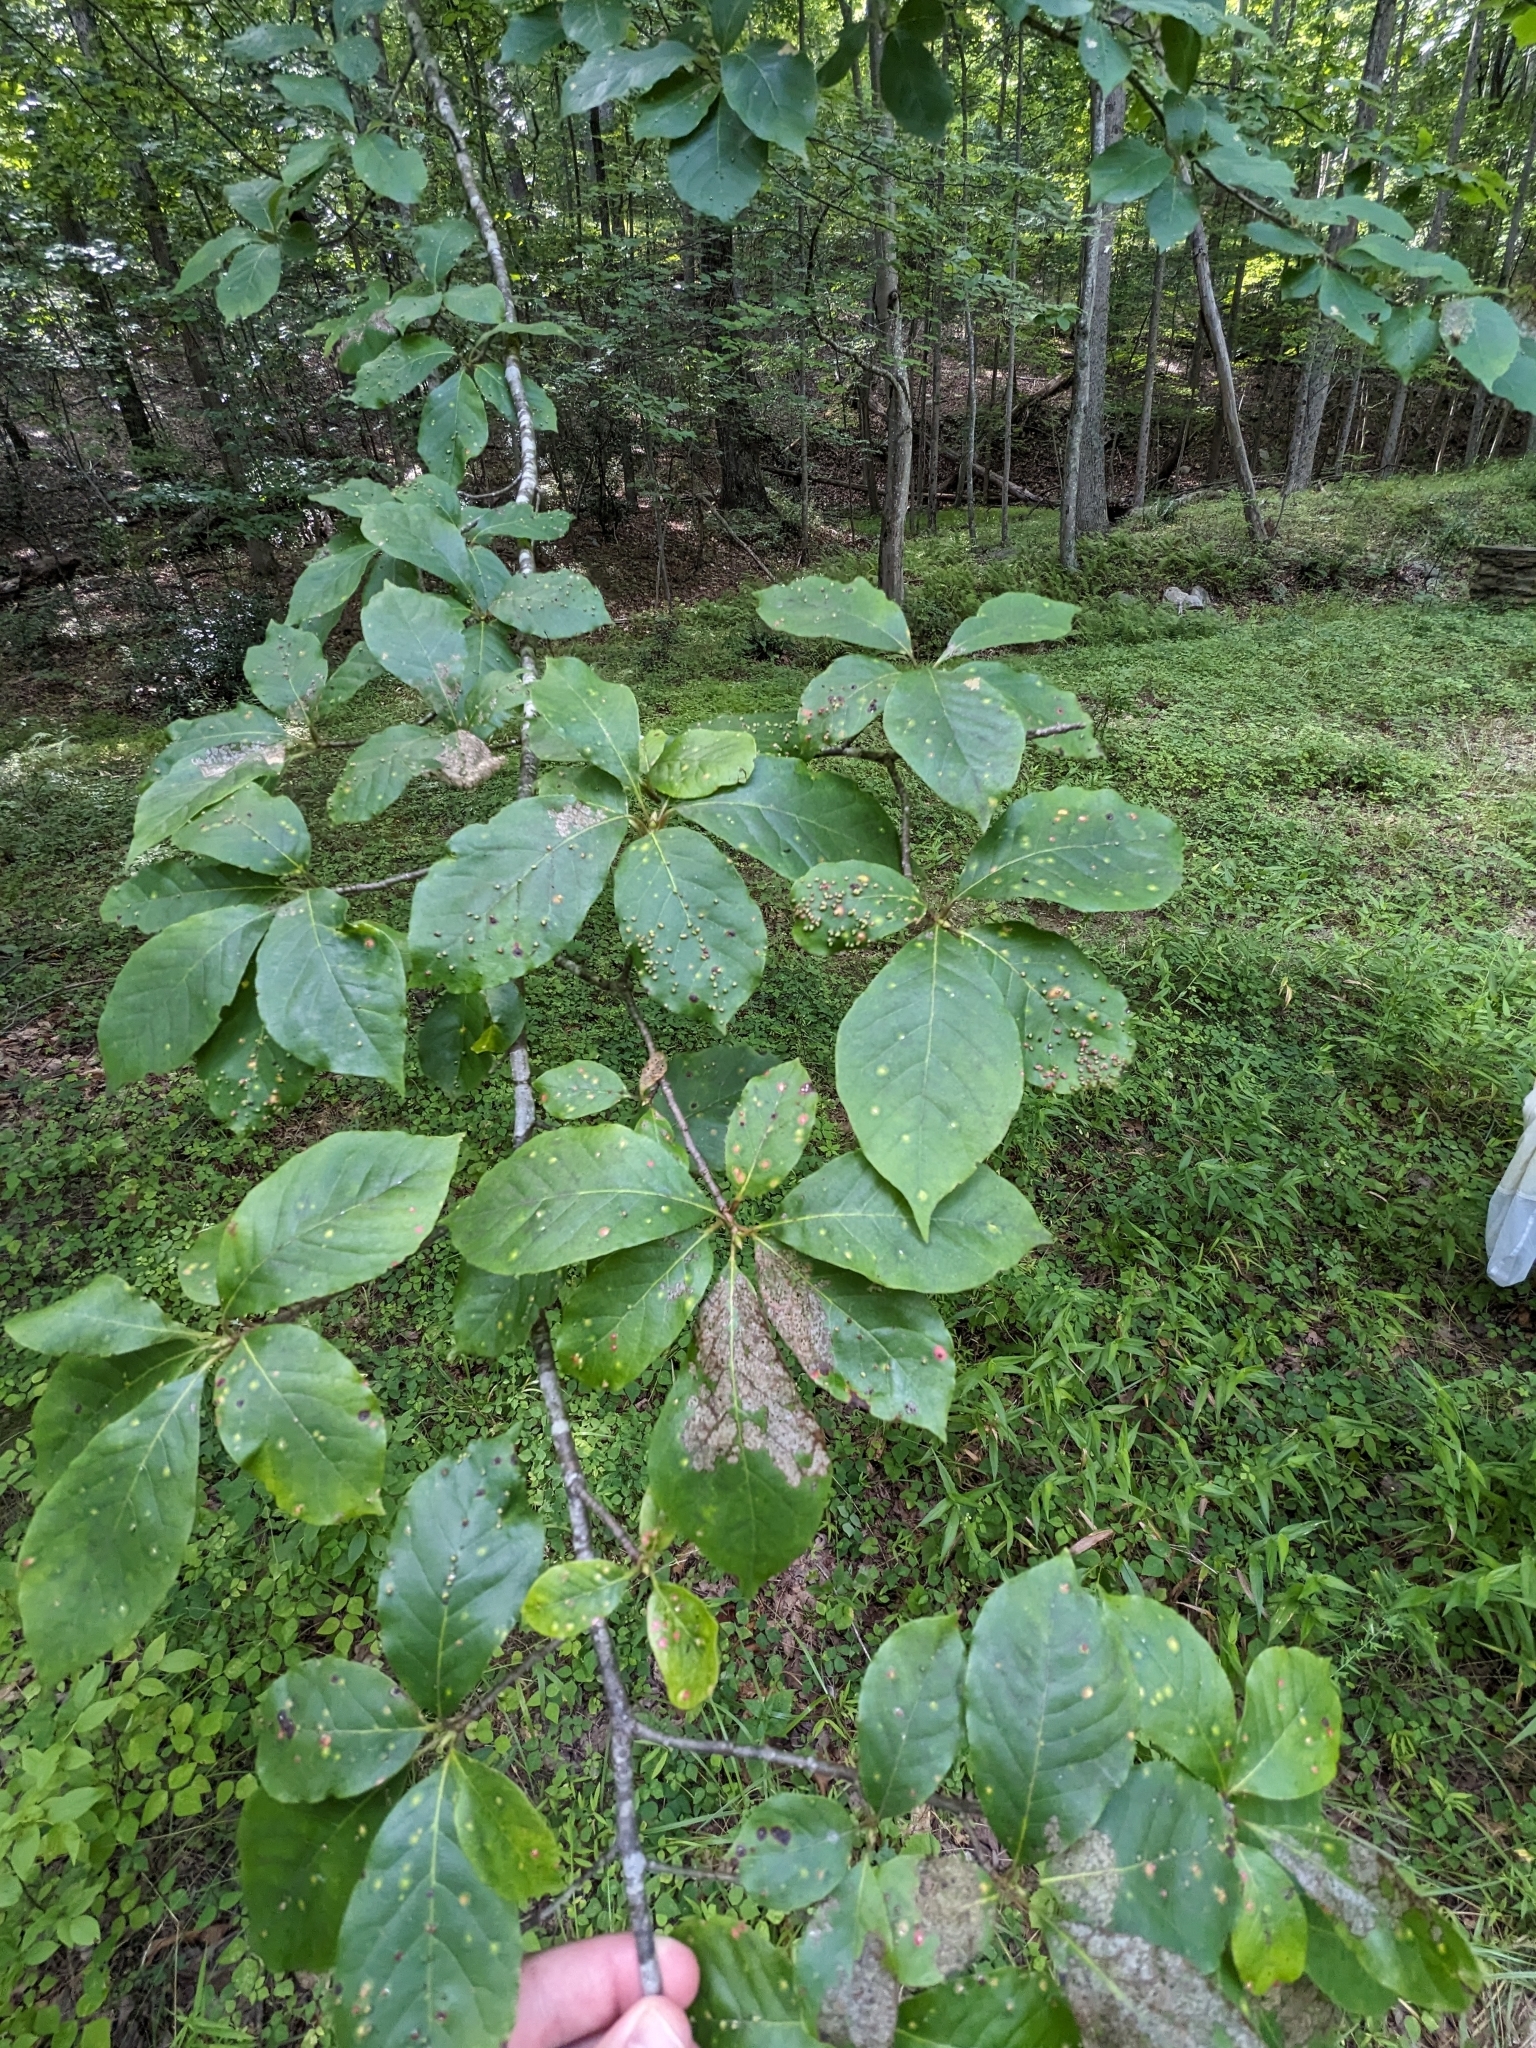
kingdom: Animalia
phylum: Arthropoda
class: Arachnida
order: Trombidiformes
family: Eriophyidae
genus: Aceria
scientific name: Aceria
